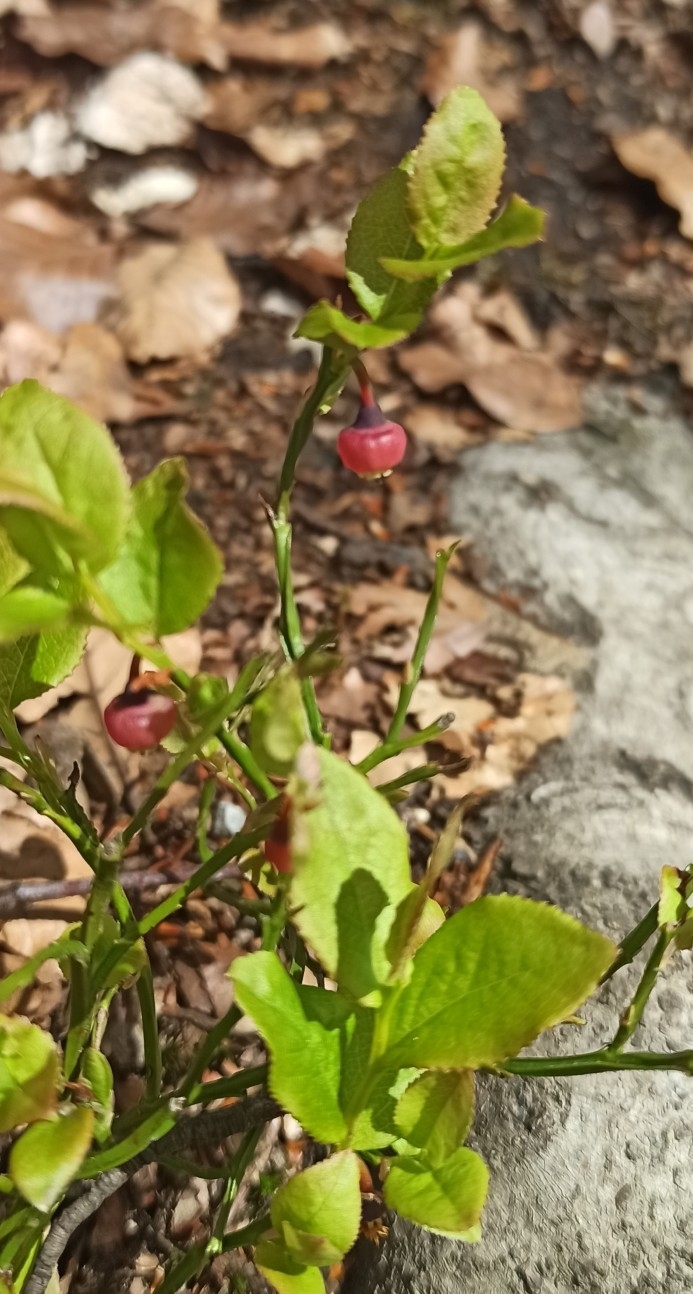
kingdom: Plantae
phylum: Tracheophyta
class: Magnoliopsida
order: Ericales
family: Ericaceae
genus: Vaccinium
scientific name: Vaccinium myrtillus
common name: Bilberry
